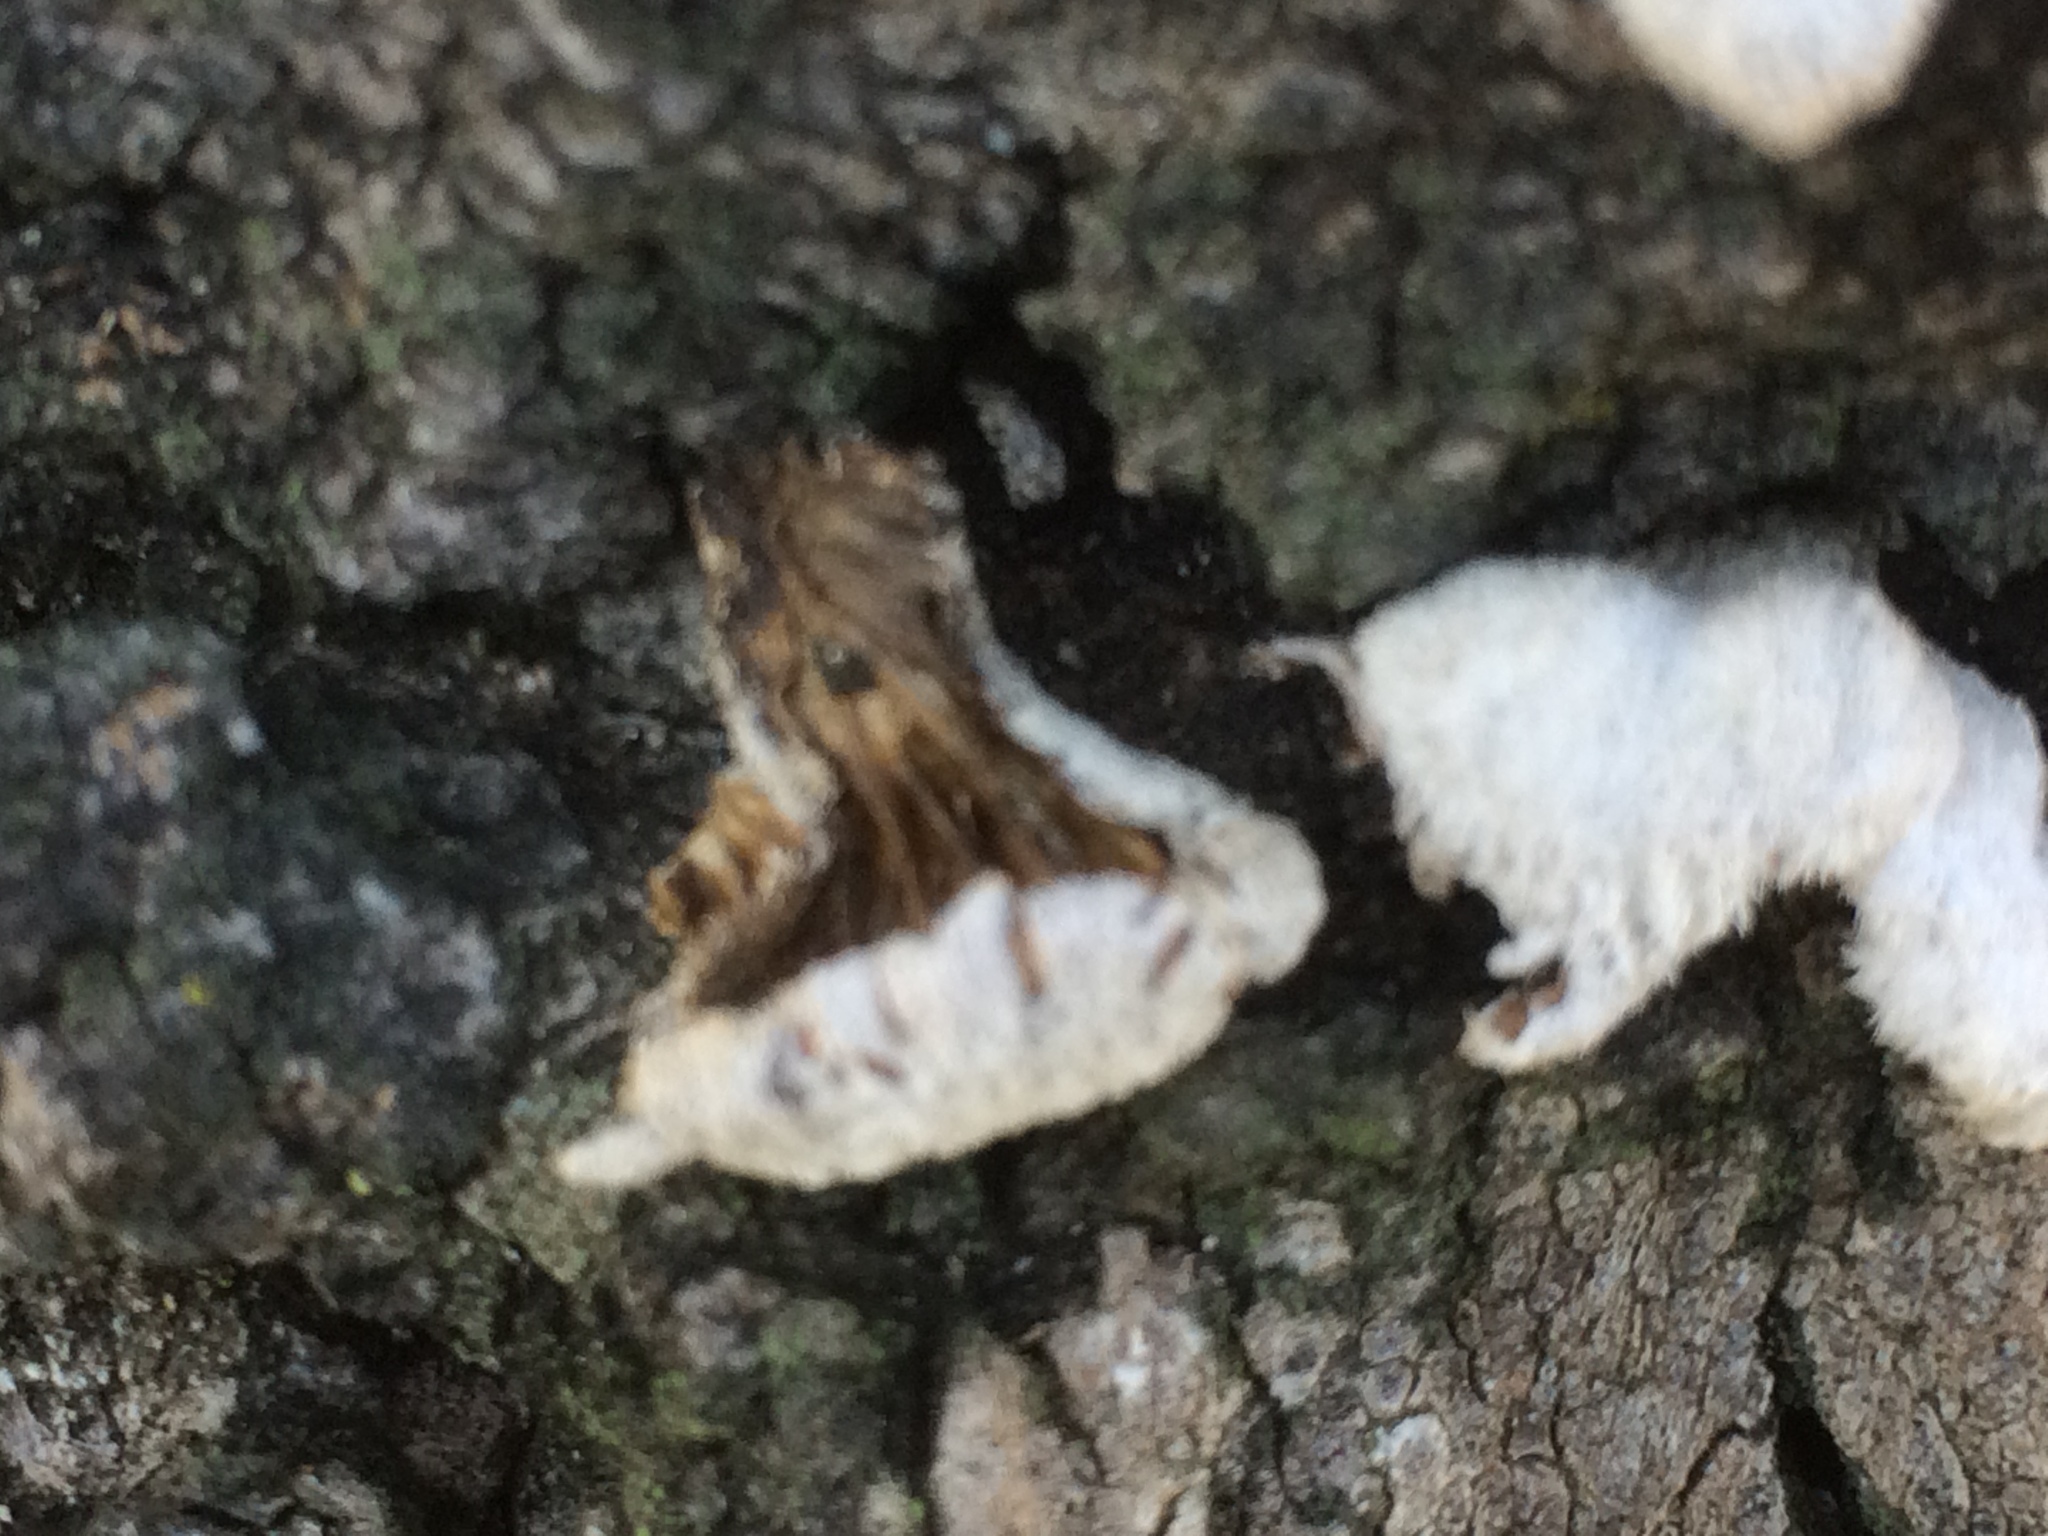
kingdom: Fungi
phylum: Basidiomycota
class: Agaricomycetes
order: Agaricales
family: Schizophyllaceae
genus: Schizophyllum
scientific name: Schizophyllum commune
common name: Common porecrust
